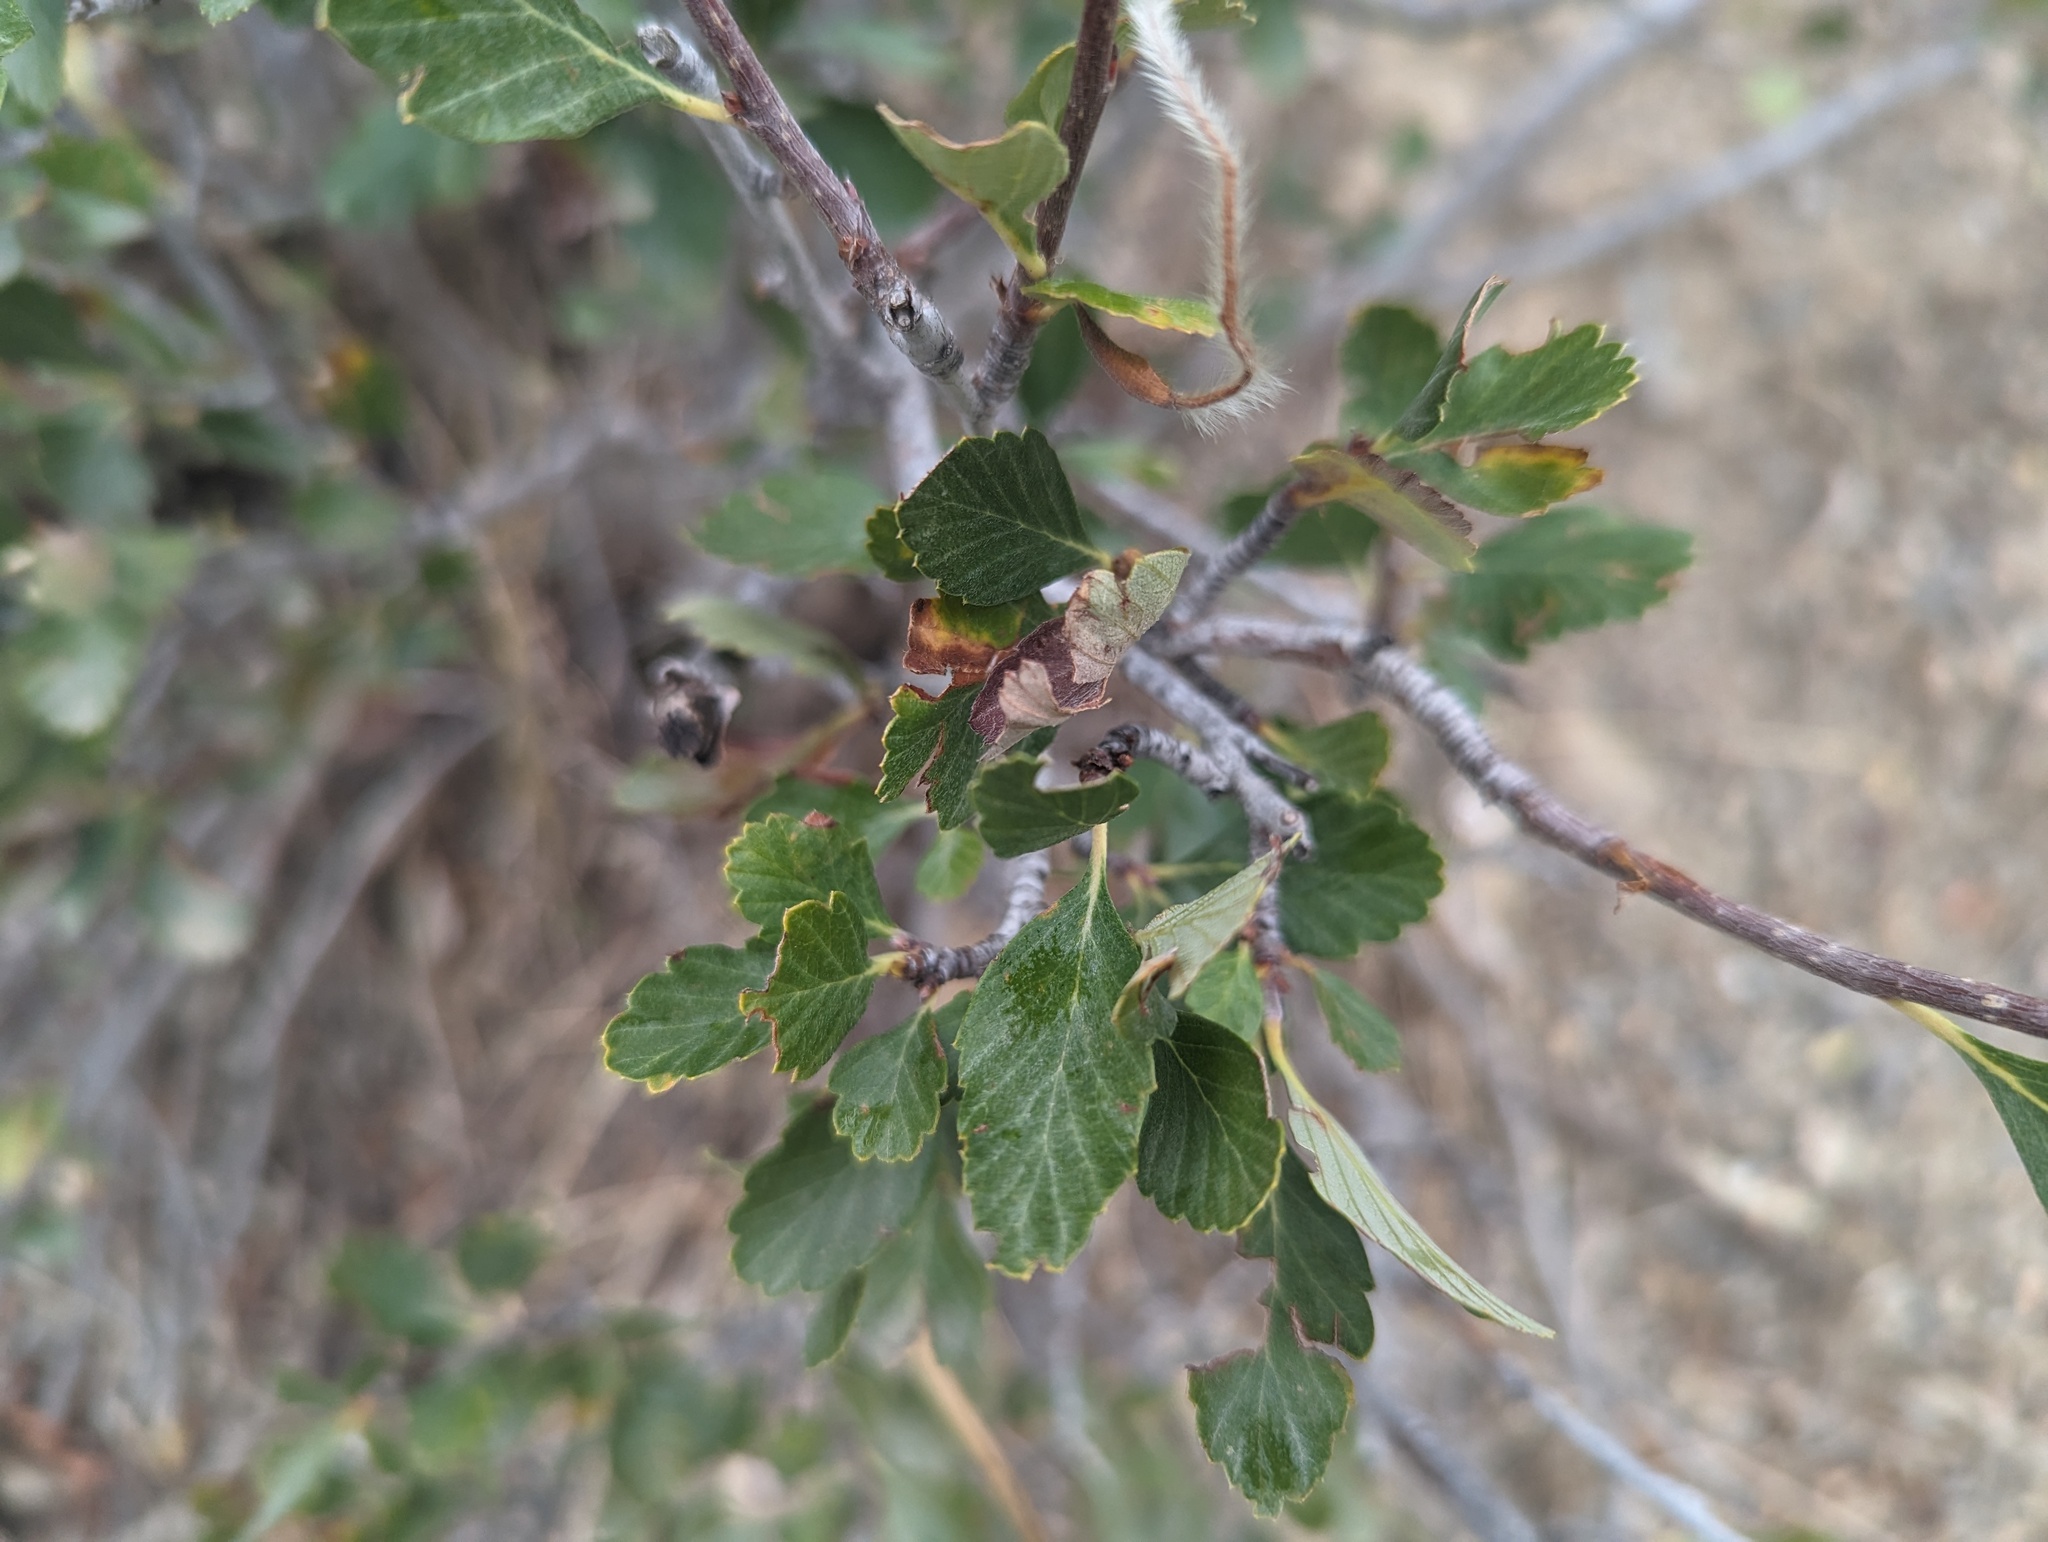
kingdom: Plantae
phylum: Tracheophyta
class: Magnoliopsida
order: Rosales
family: Rosaceae
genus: Cercocarpus
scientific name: Cercocarpus montanus
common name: Alder-leaf cercocarpus
